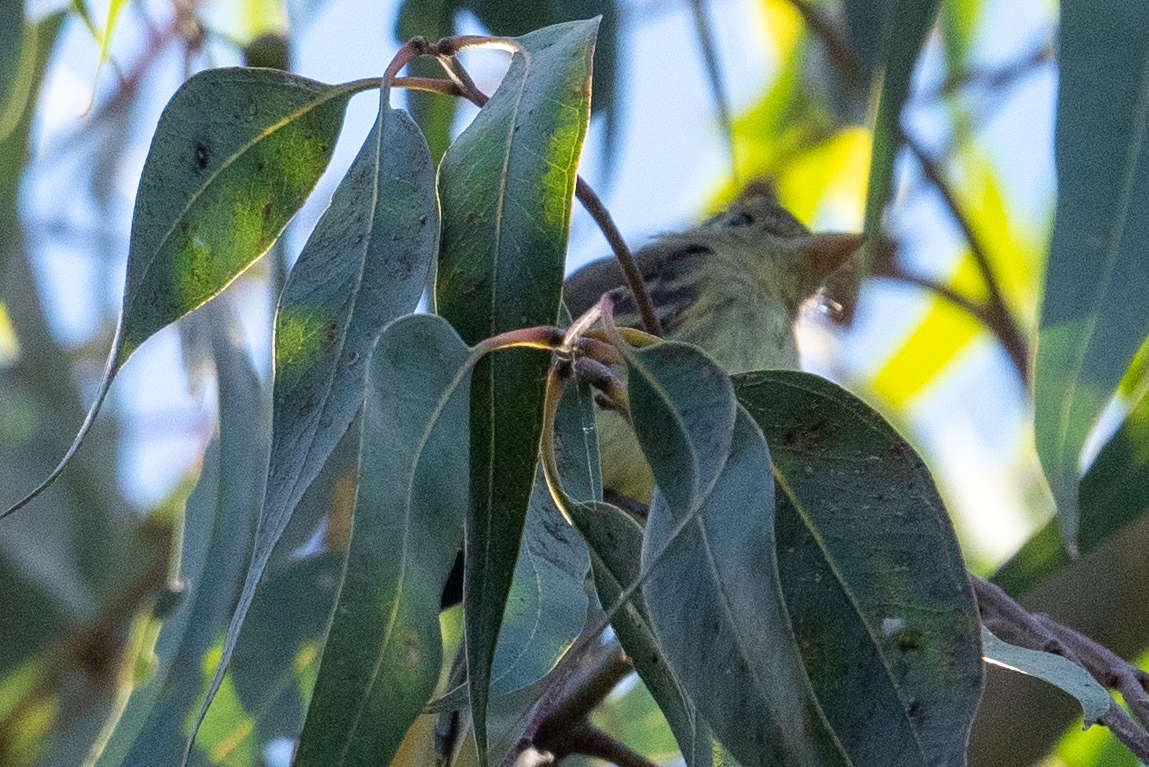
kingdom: Animalia
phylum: Chordata
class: Aves
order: Passeriformes
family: Tyrannidae
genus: Empidonax
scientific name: Empidonax difficilis
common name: Pacific-slope flycatcher
